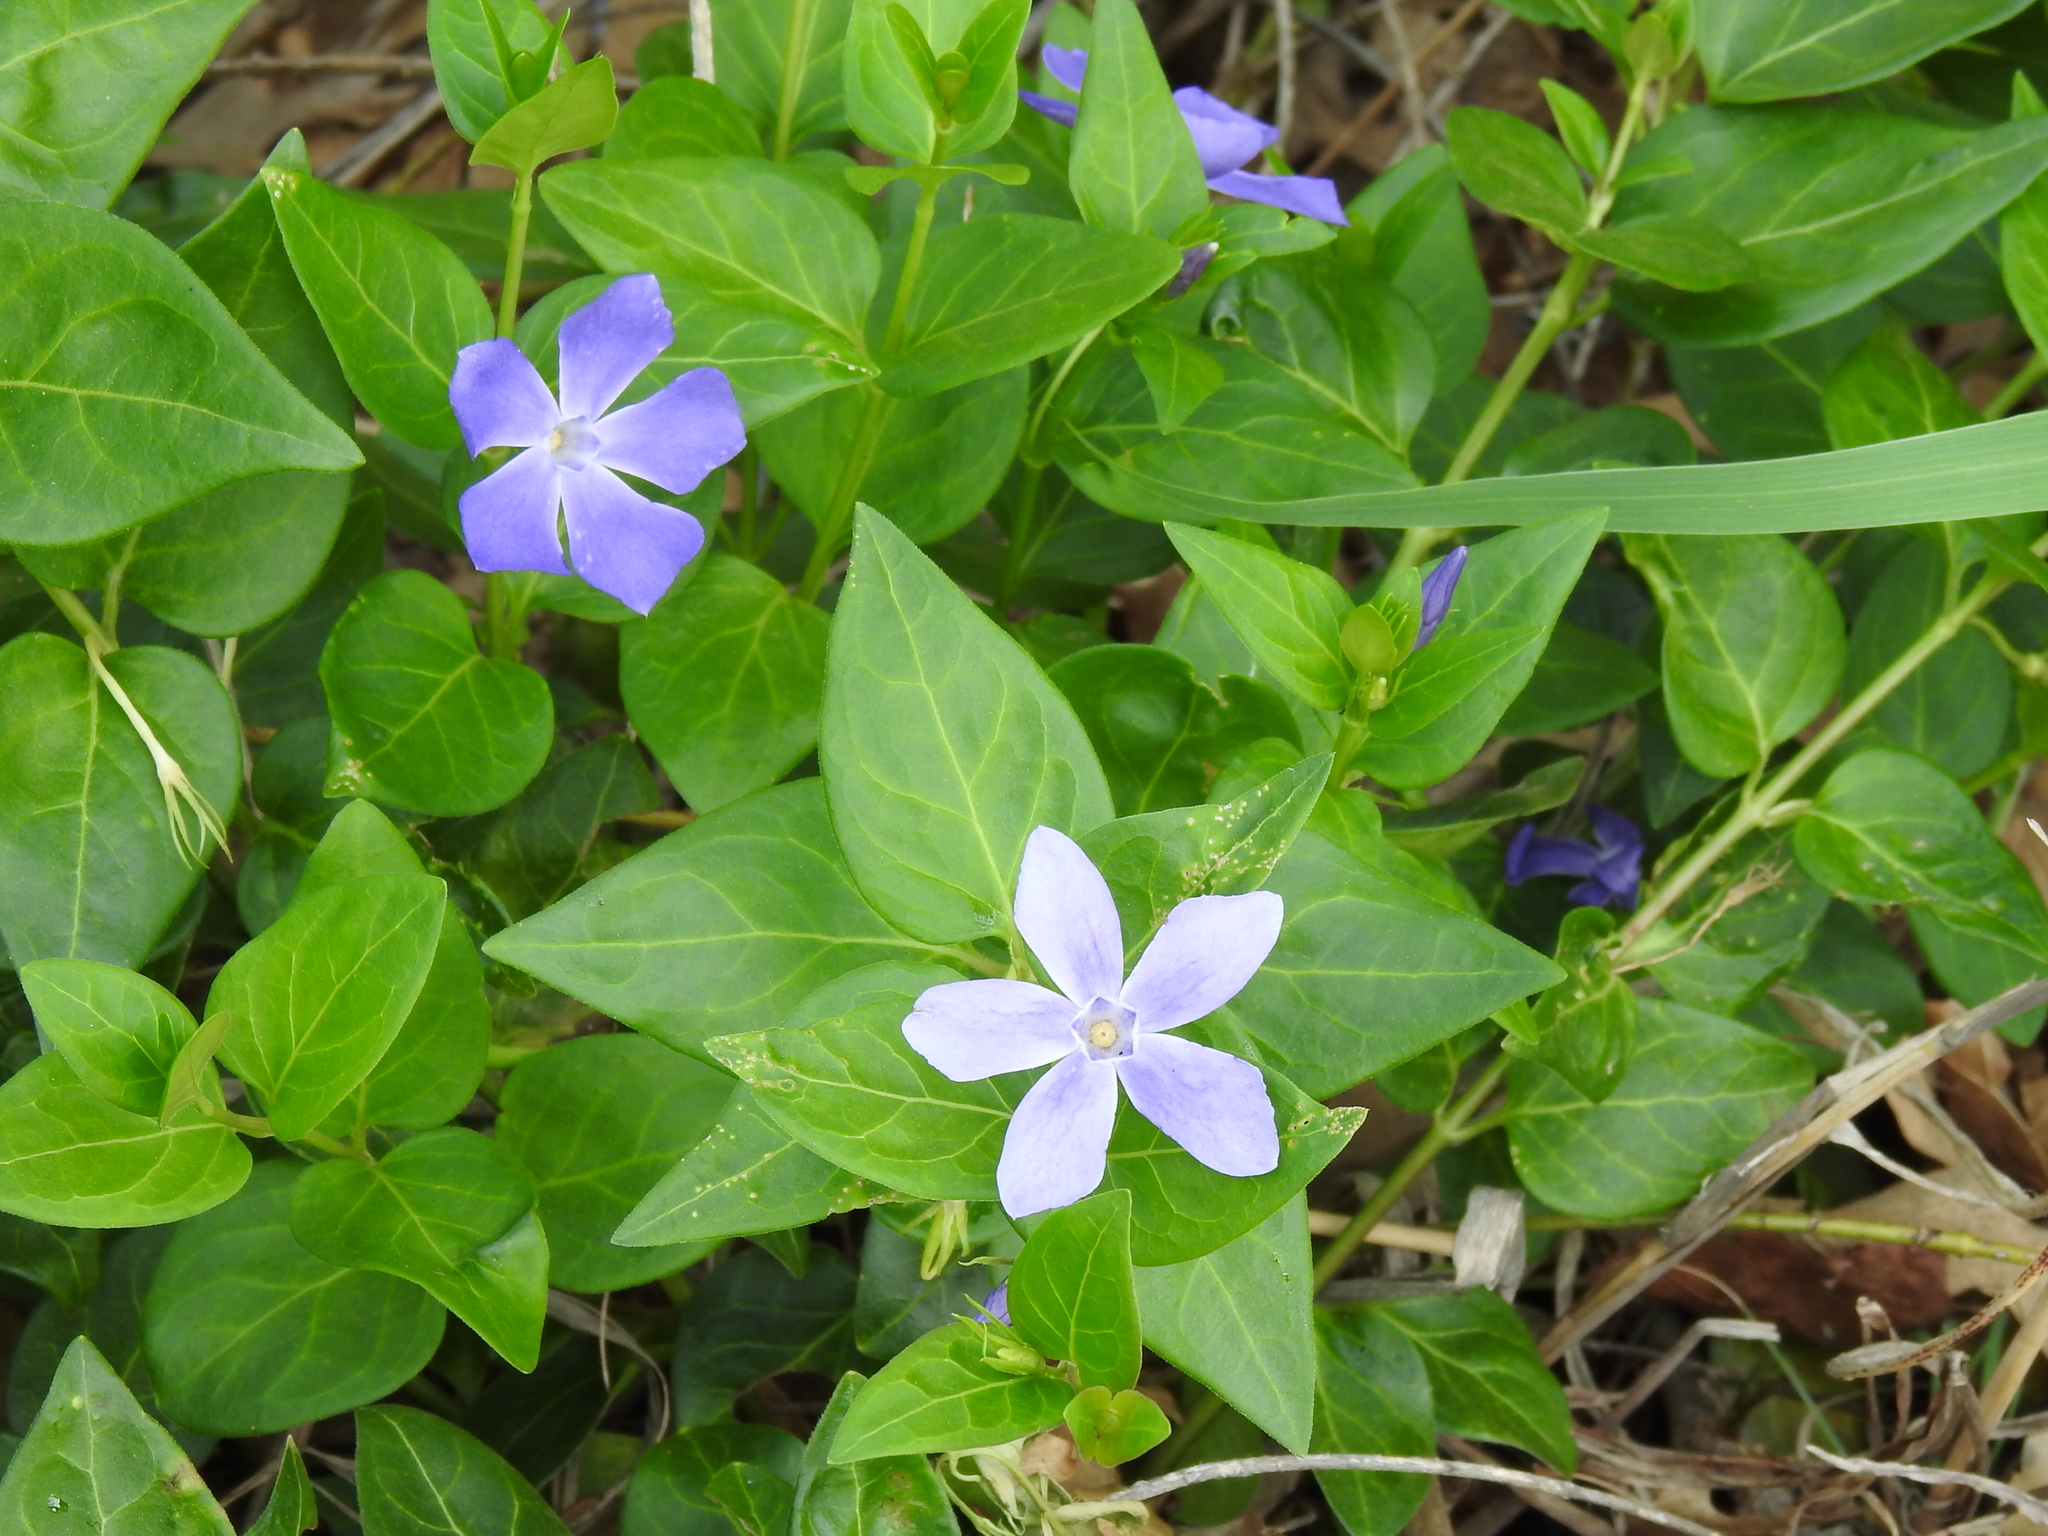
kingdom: Plantae
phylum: Tracheophyta
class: Magnoliopsida
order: Gentianales
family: Apocynaceae
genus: Vinca
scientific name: Vinca major
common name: Greater periwinkle
